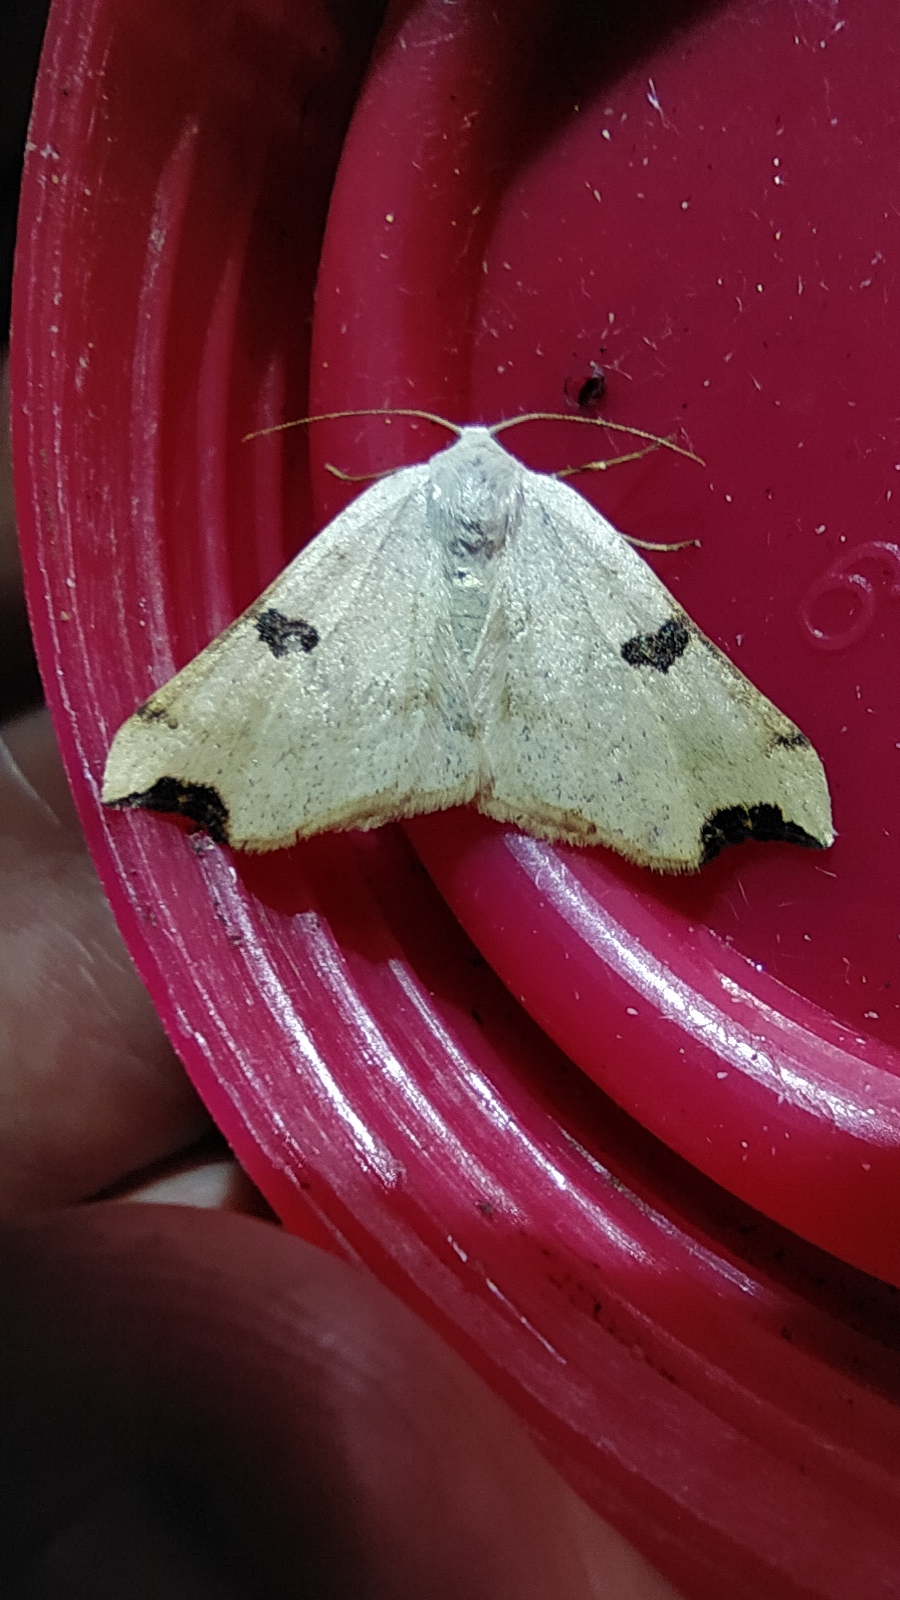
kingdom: Animalia
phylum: Arthropoda
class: Insecta
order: Lepidoptera
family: Geometridae
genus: Eilicrinia
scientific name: Eilicrinia cordiaria
